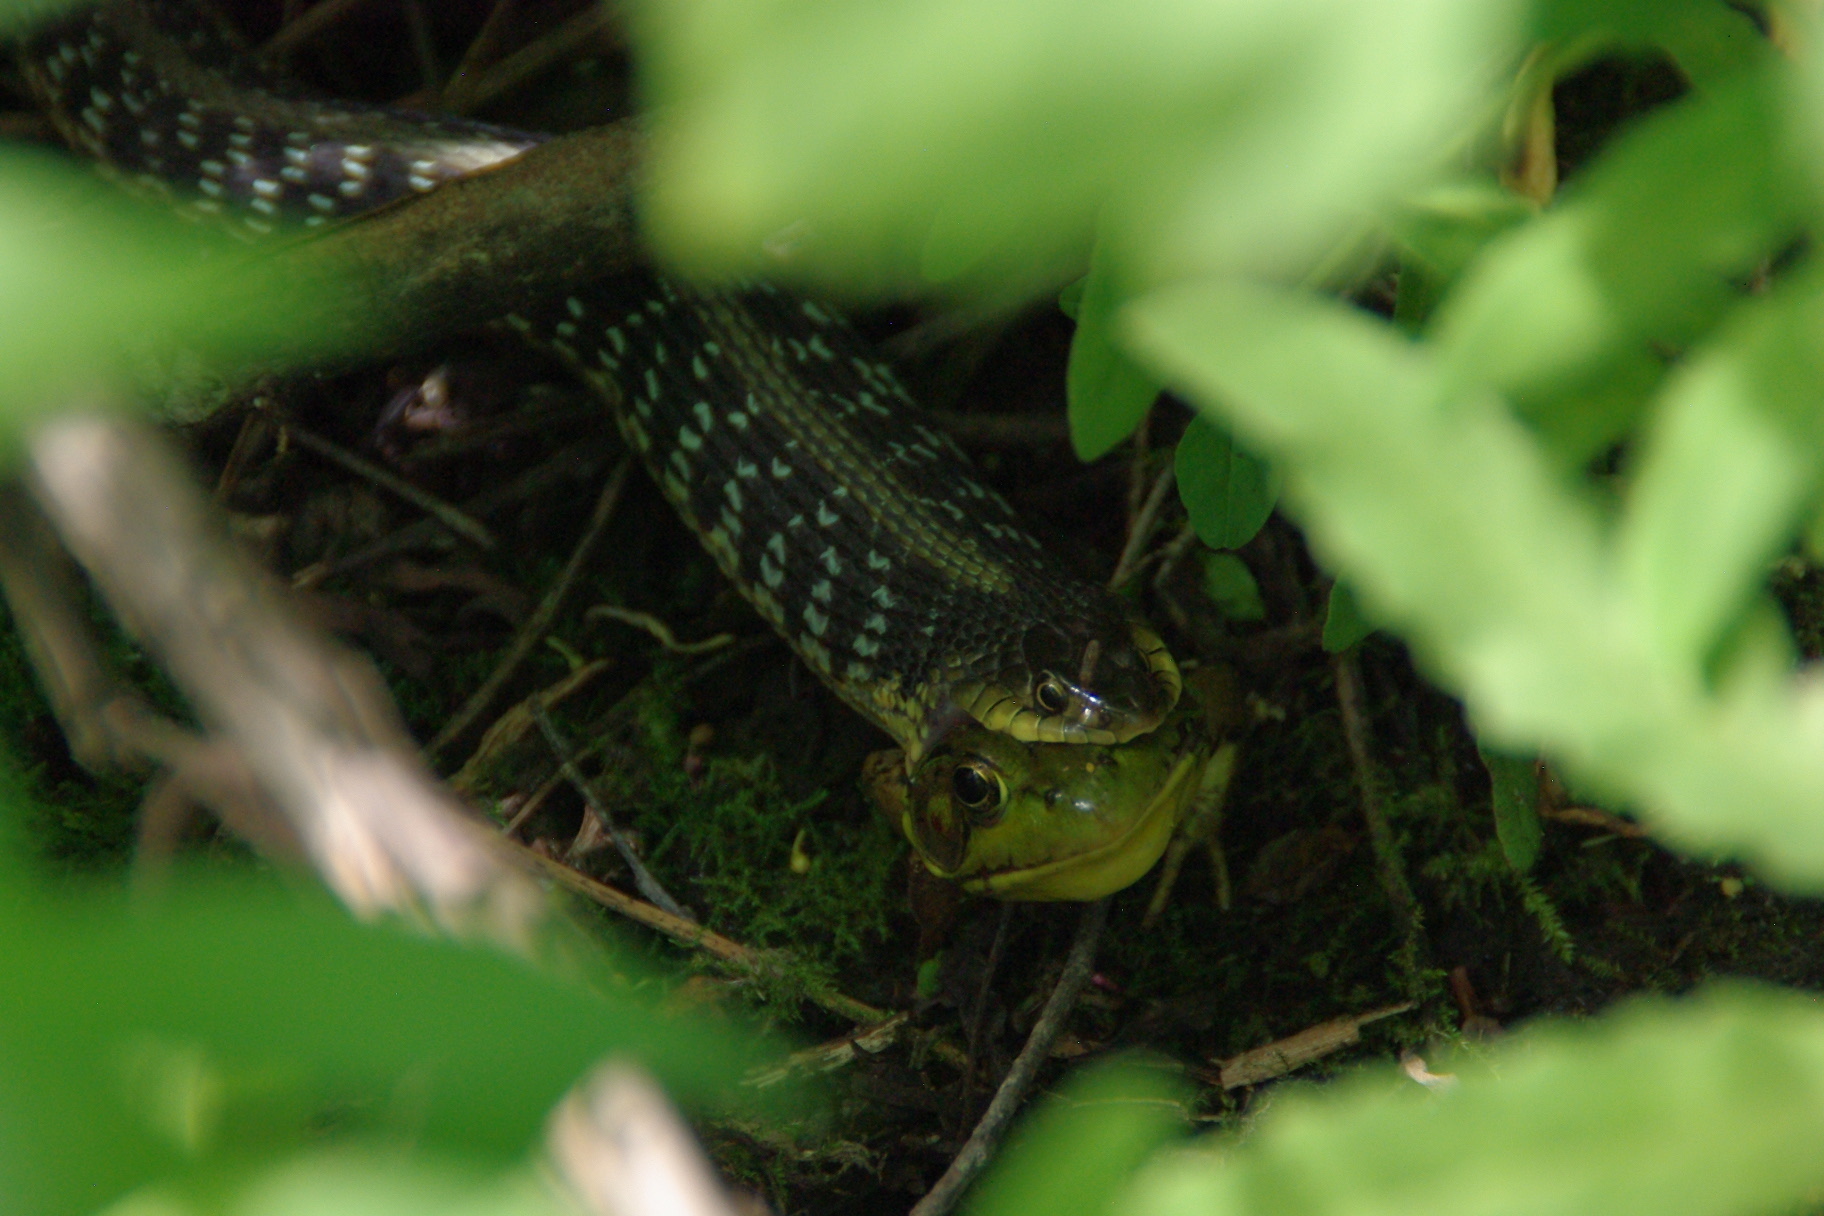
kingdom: Animalia
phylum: Chordata
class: Squamata
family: Colubridae
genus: Thamnophis
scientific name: Thamnophis sirtalis
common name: Common garter snake
